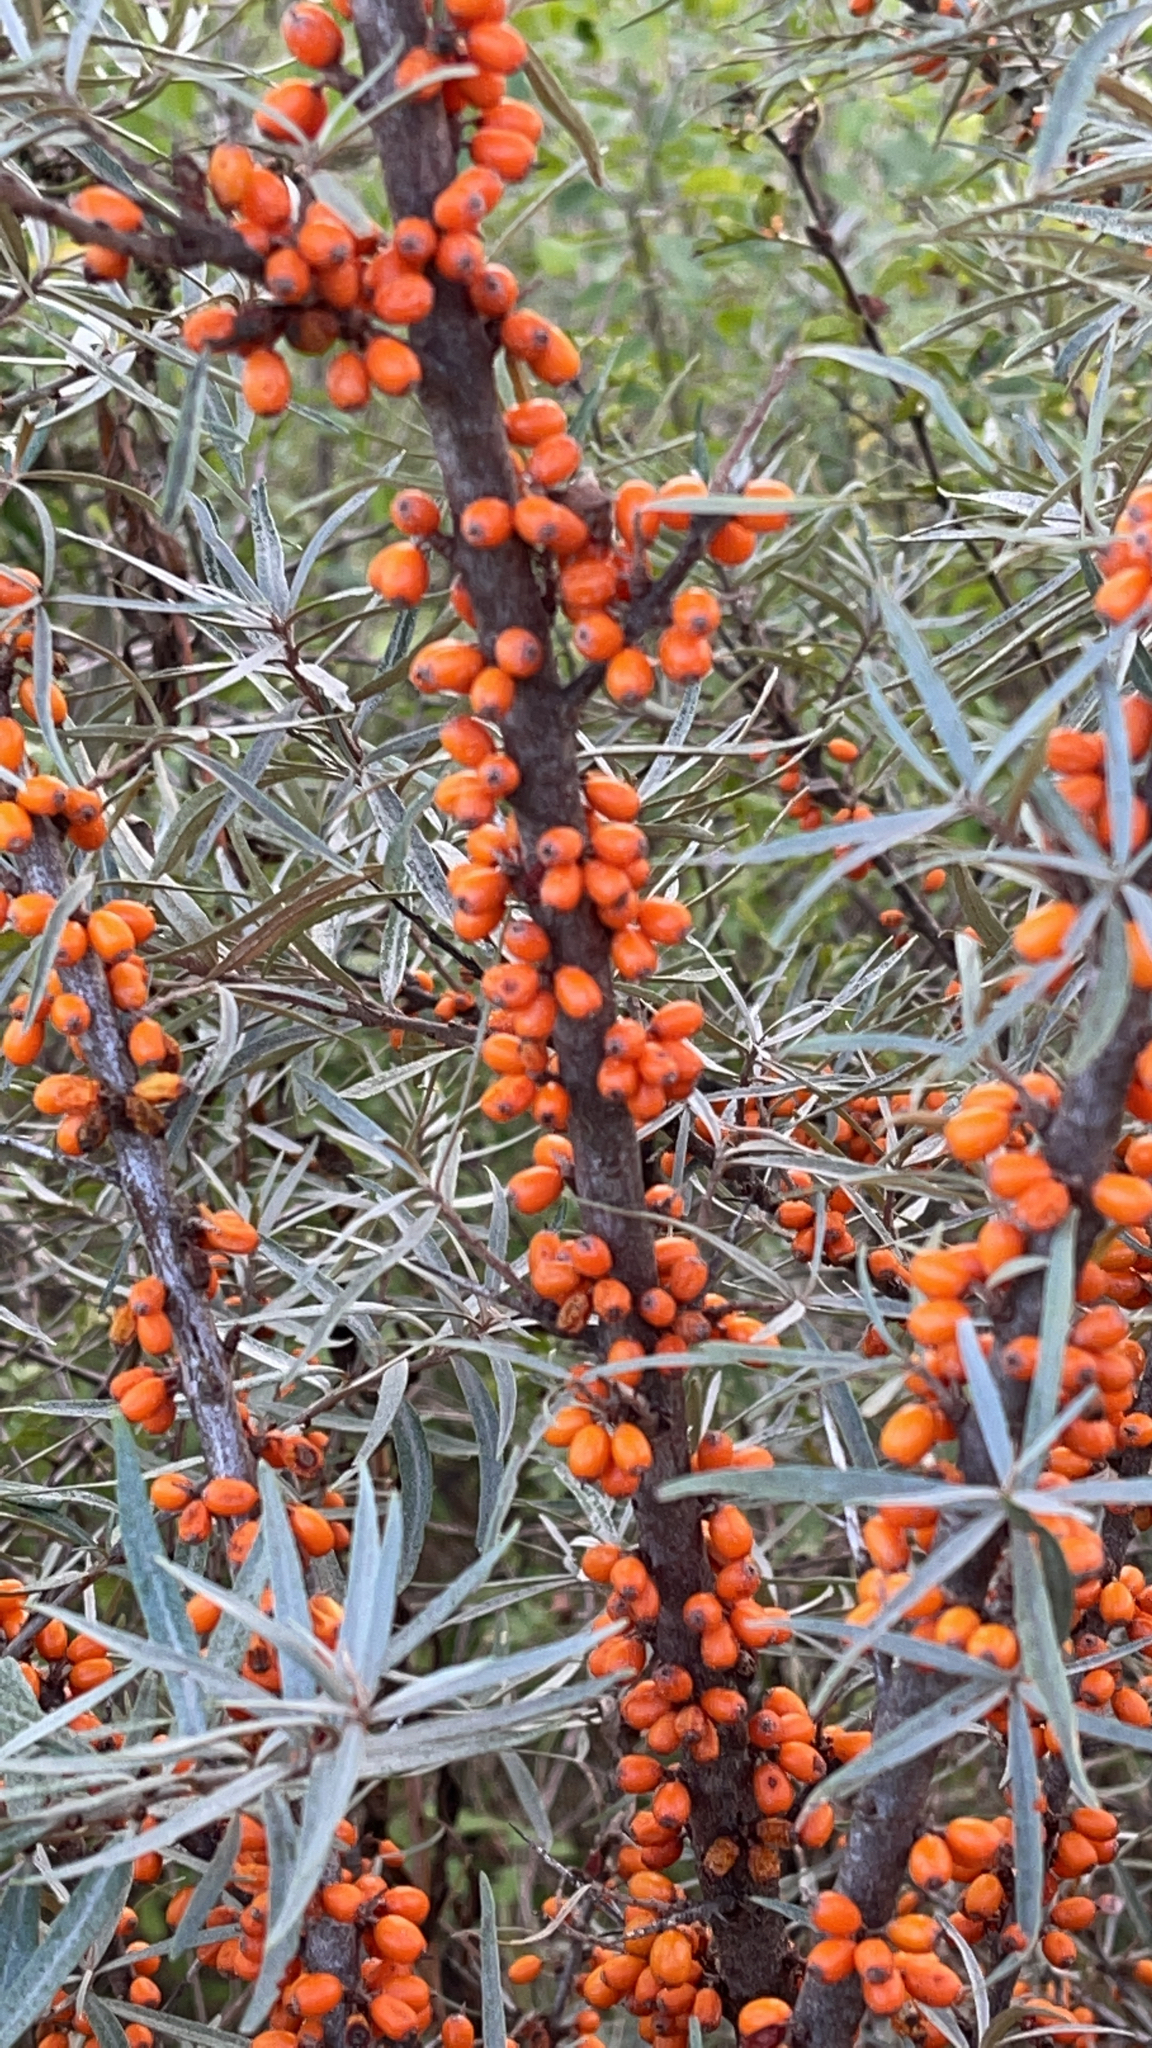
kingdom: Plantae
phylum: Tracheophyta
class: Magnoliopsida
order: Rosales
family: Elaeagnaceae
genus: Hippophae
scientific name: Hippophae rhamnoides
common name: Sea-buckthorn
